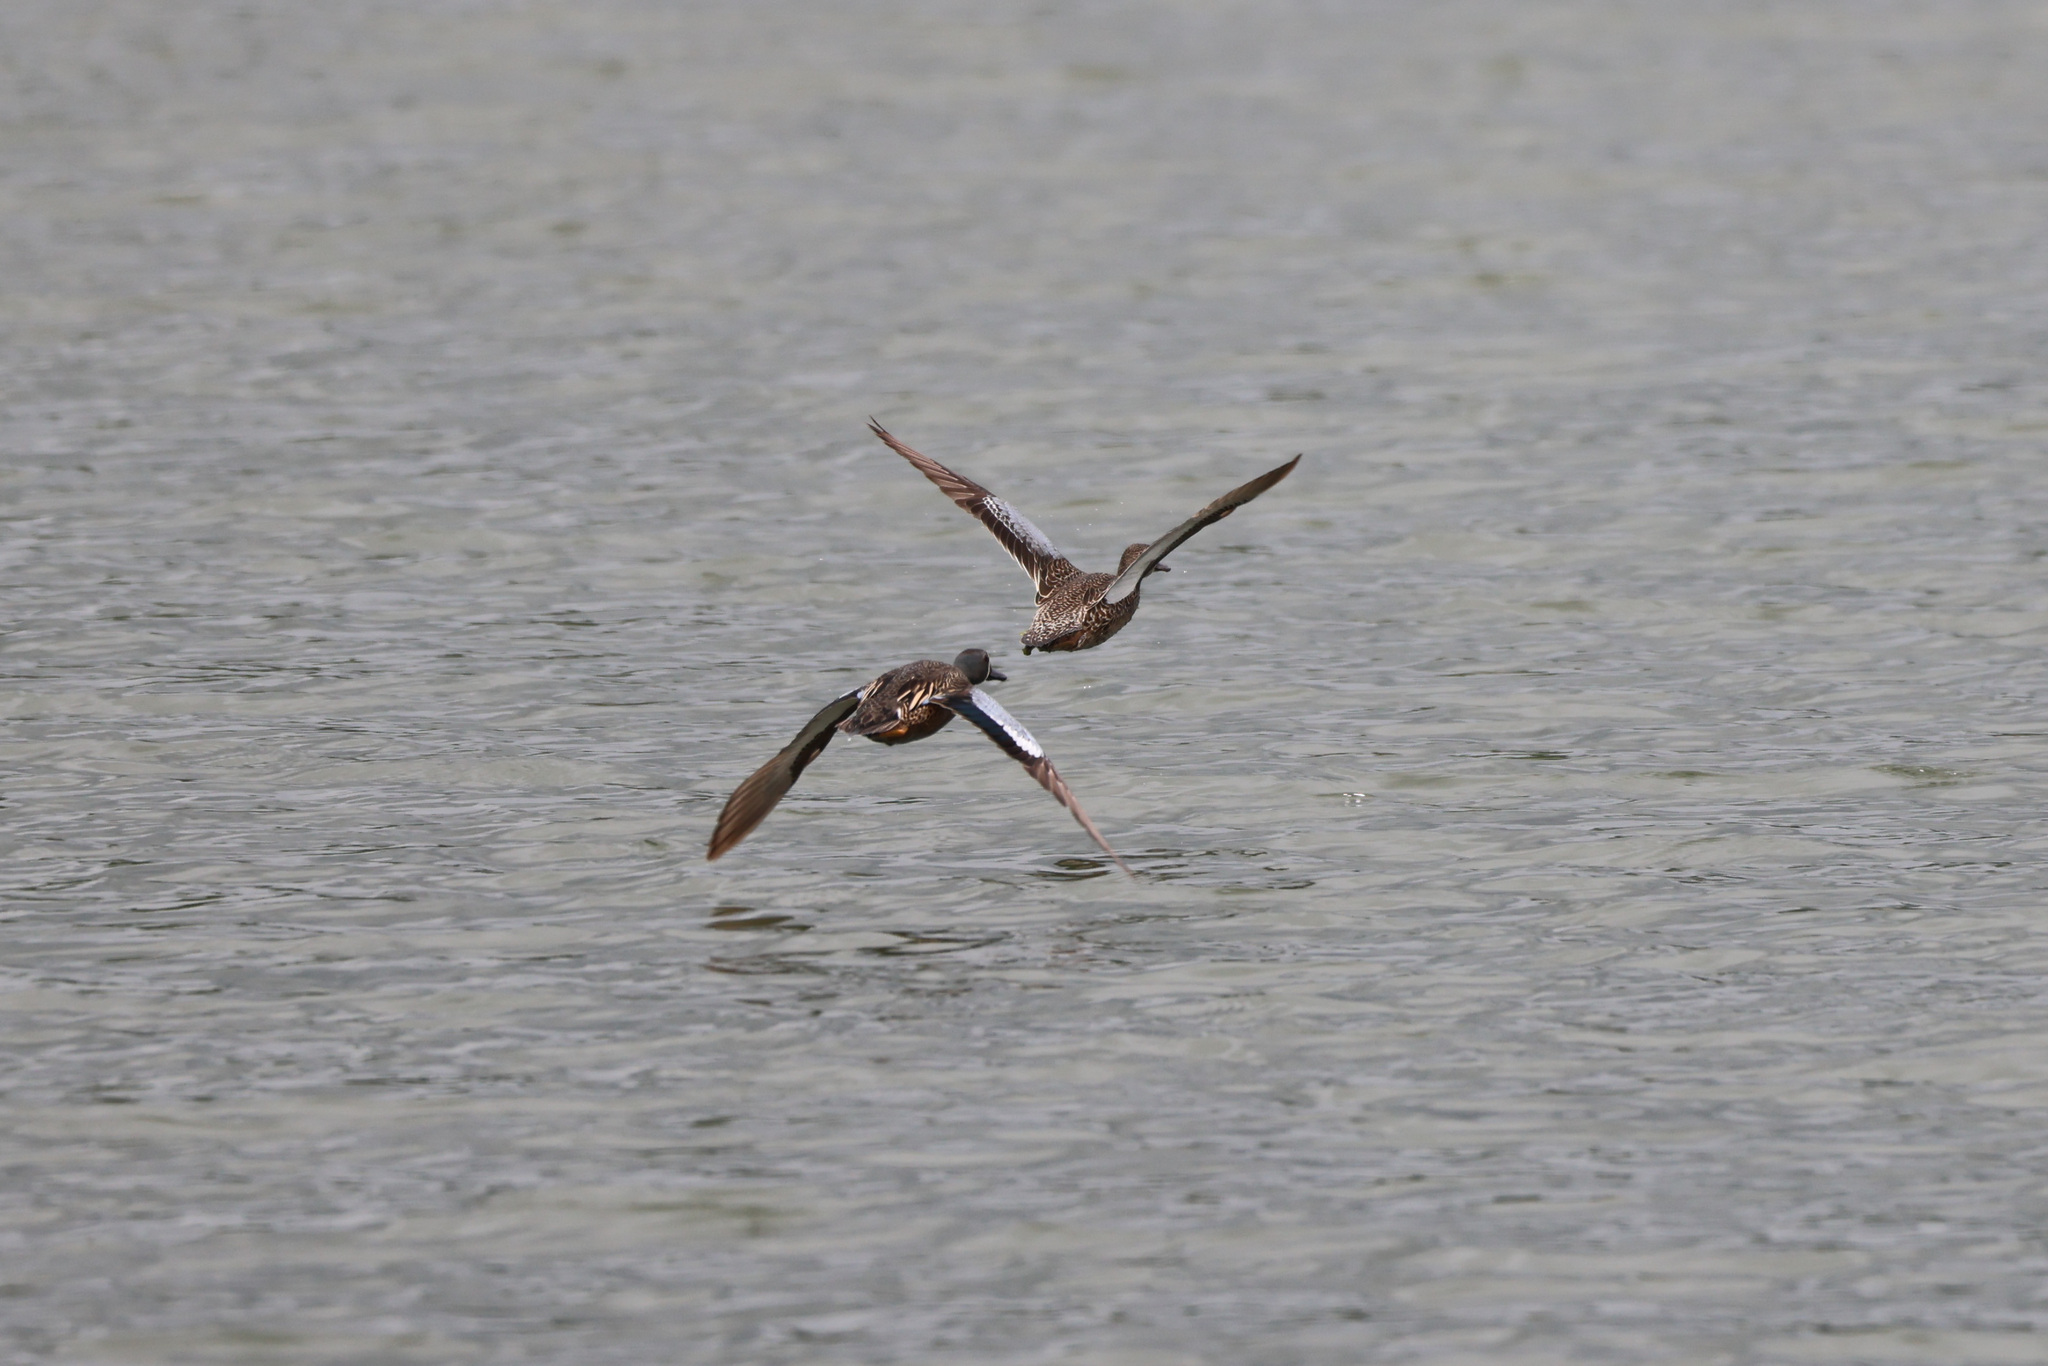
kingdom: Animalia
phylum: Chordata
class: Aves
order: Anseriformes
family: Anatidae
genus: Spatula
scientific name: Spatula discors
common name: Blue-winged teal
